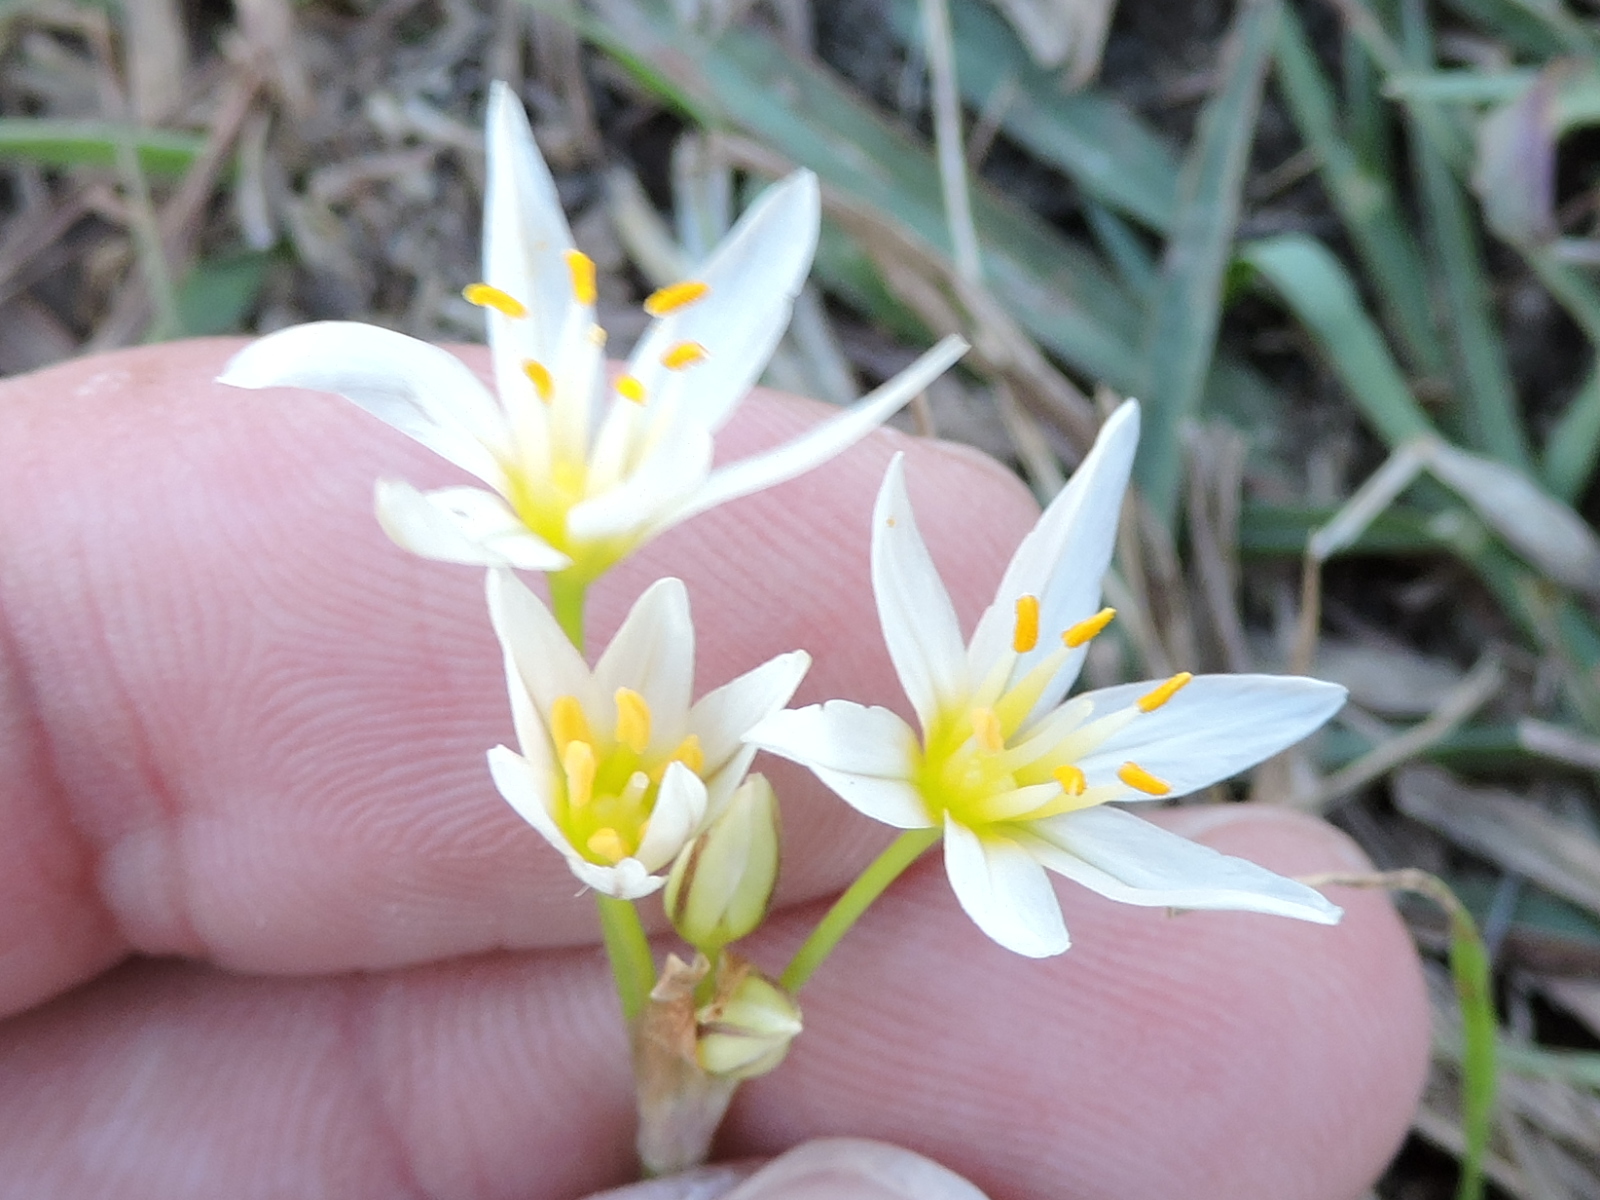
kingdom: Plantae
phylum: Tracheophyta
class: Liliopsida
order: Asparagales
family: Amaryllidaceae
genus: Nothoscordum
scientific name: Nothoscordum bivalve
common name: Crow-poison
